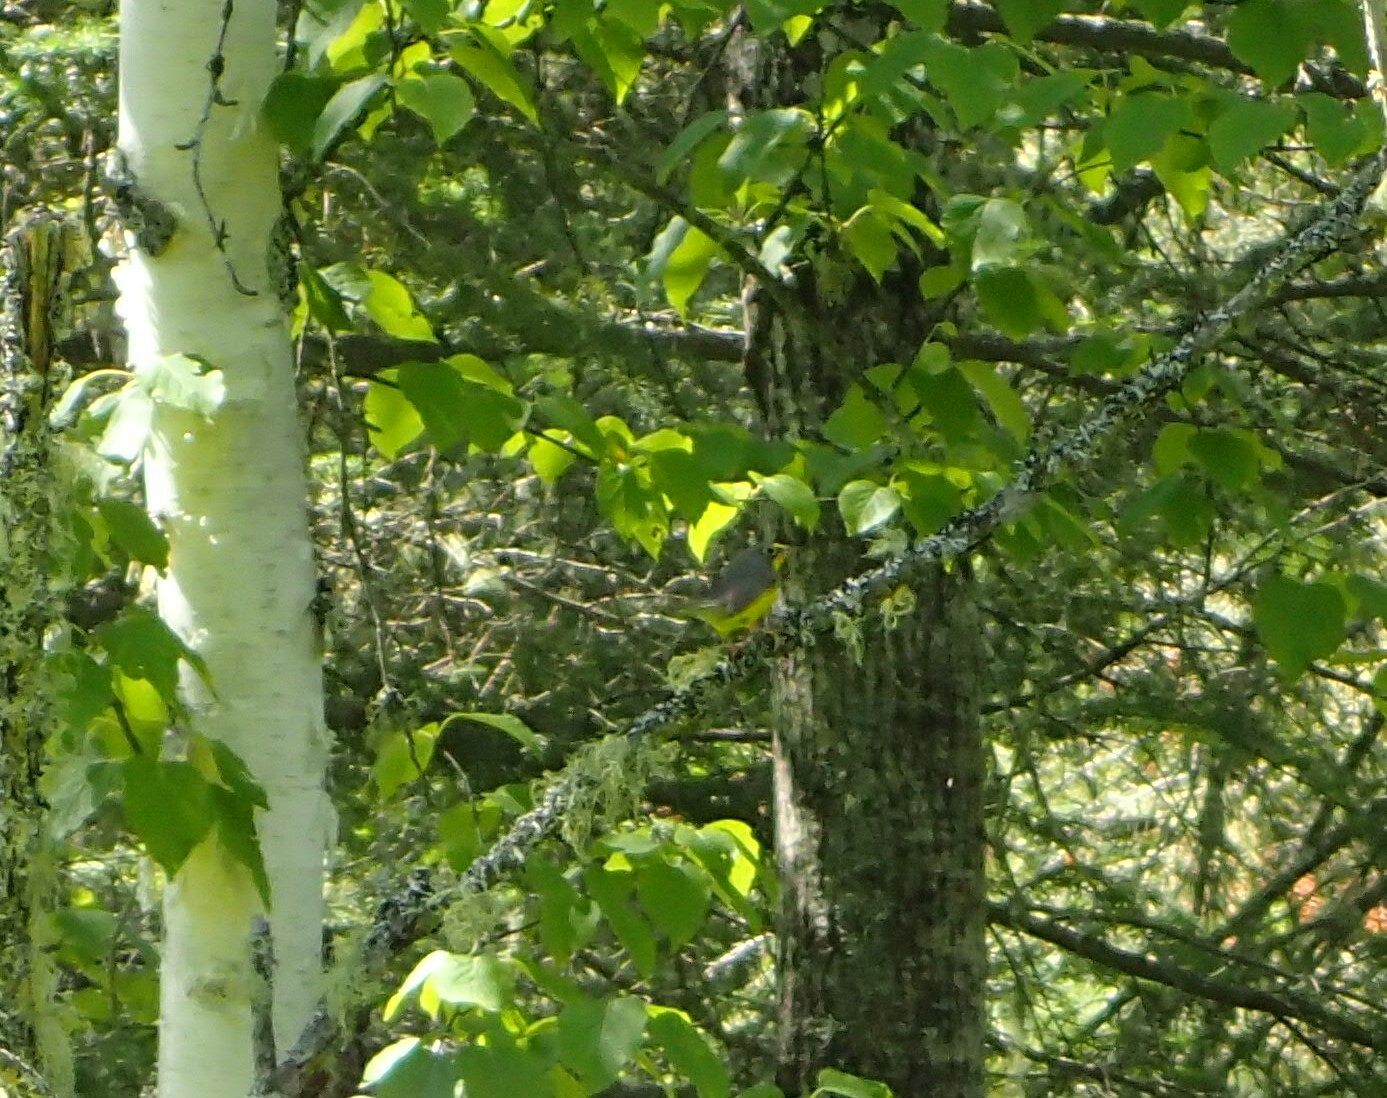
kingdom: Animalia
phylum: Chordata
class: Aves
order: Passeriformes
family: Parulidae
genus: Cardellina
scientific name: Cardellina canadensis
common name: Canada warbler
